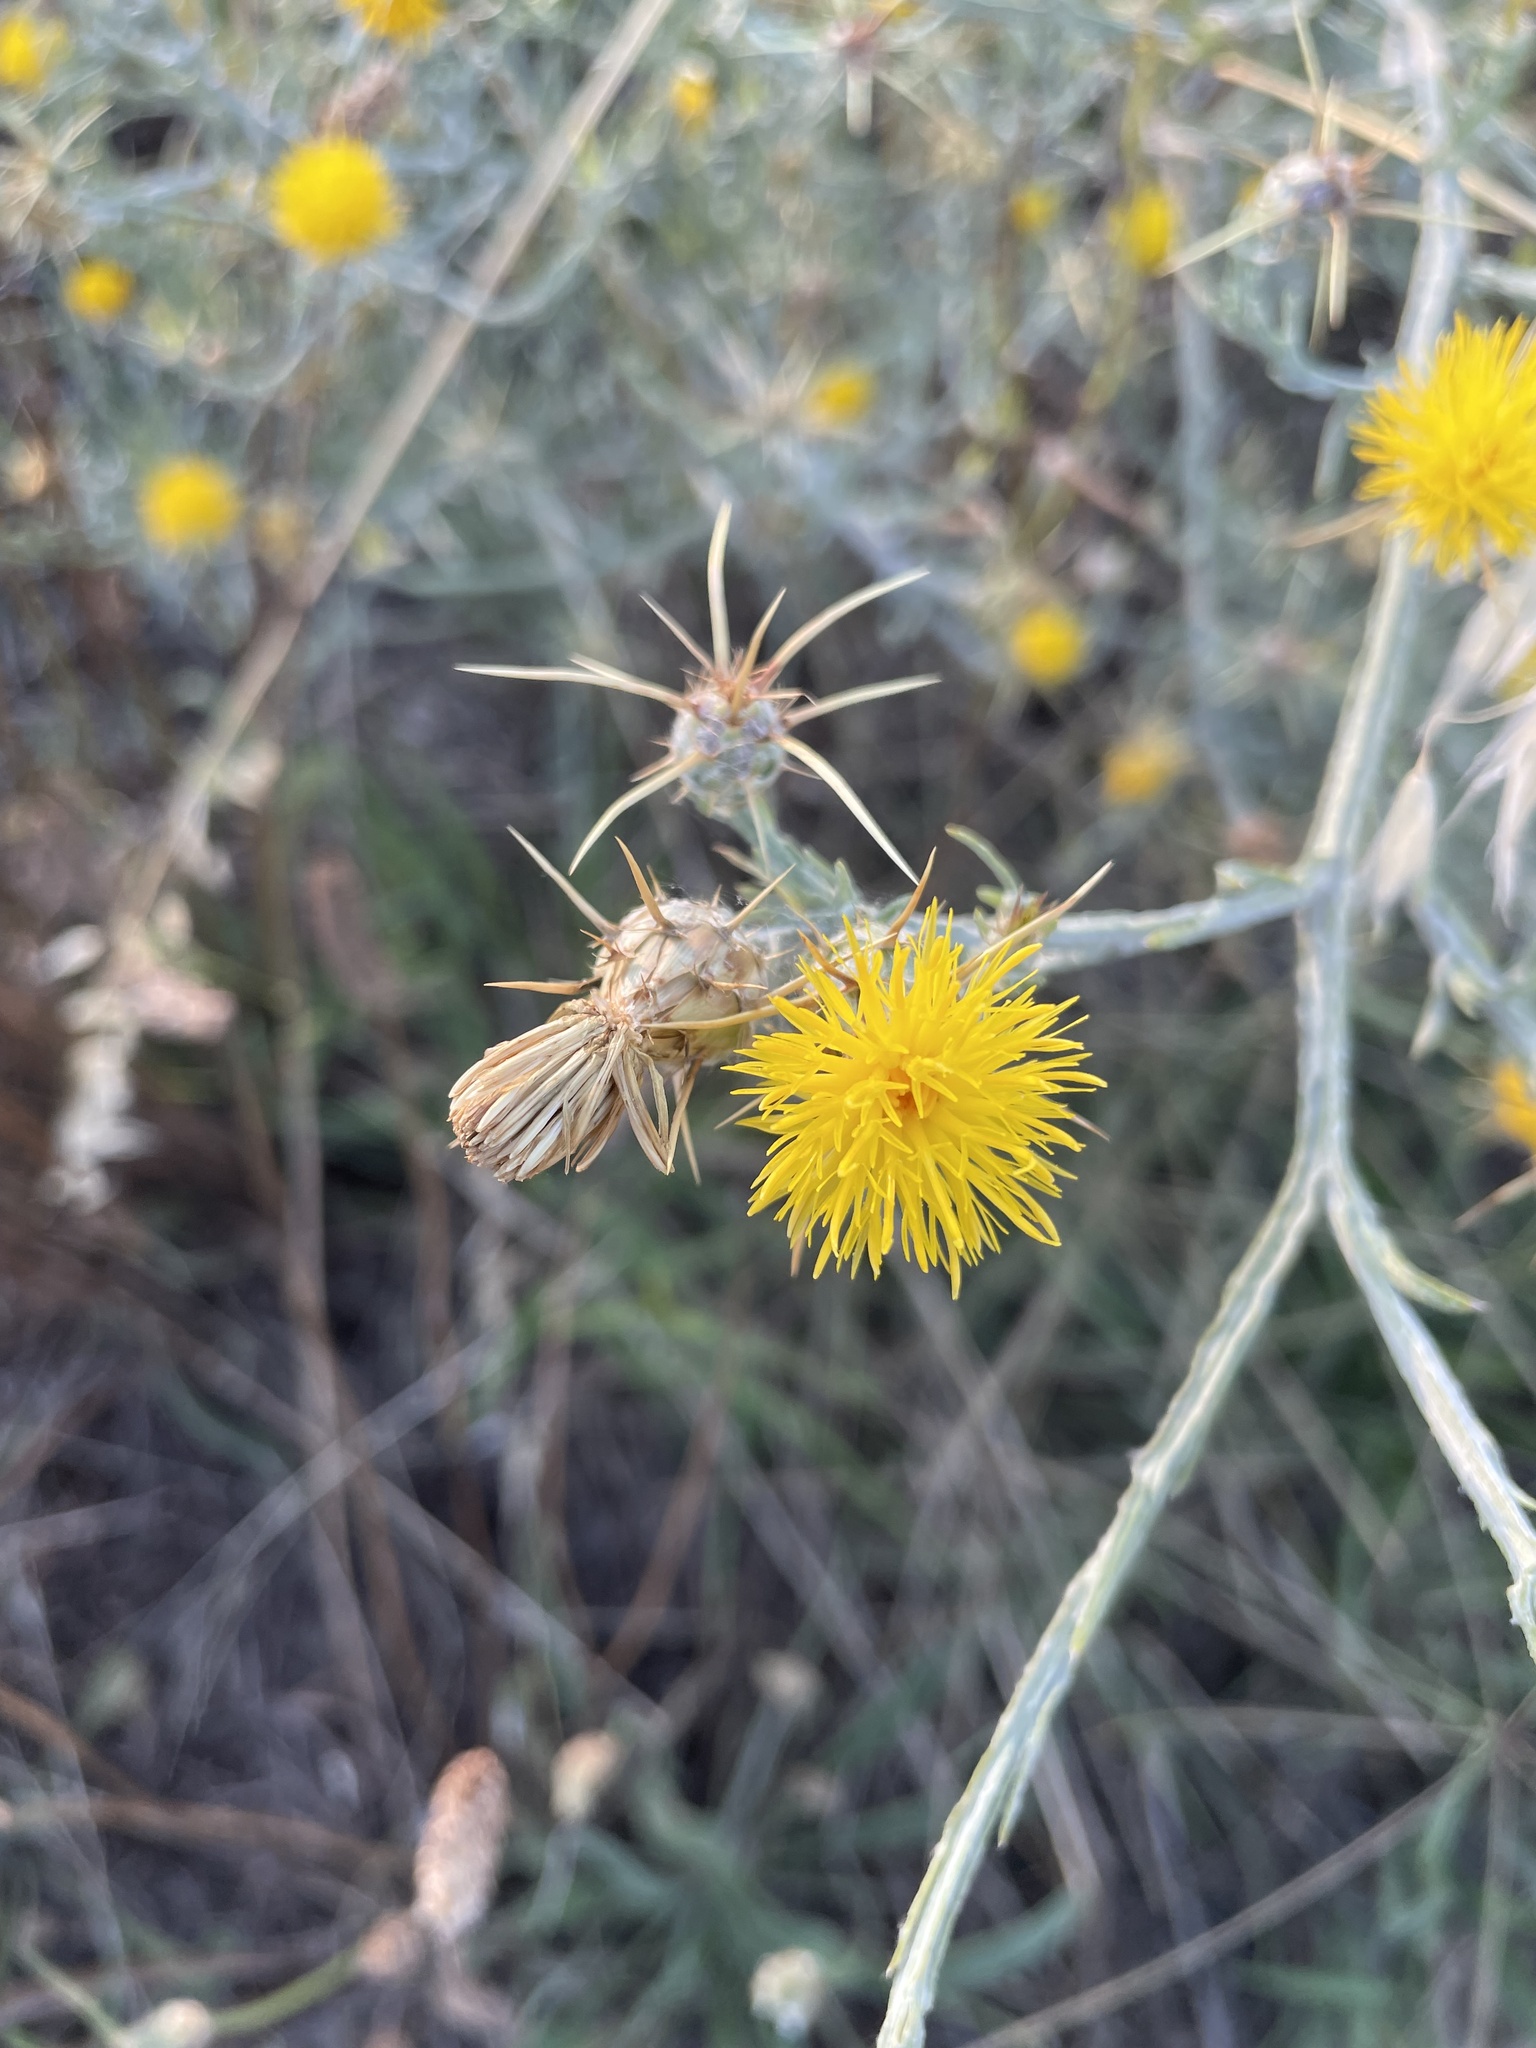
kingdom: Plantae
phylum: Tracheophyta
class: Magnoliopsida
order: Asterales
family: Asteraceae
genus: Centaurea
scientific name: Centaurea solstitialis
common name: Yellow star-thistle
